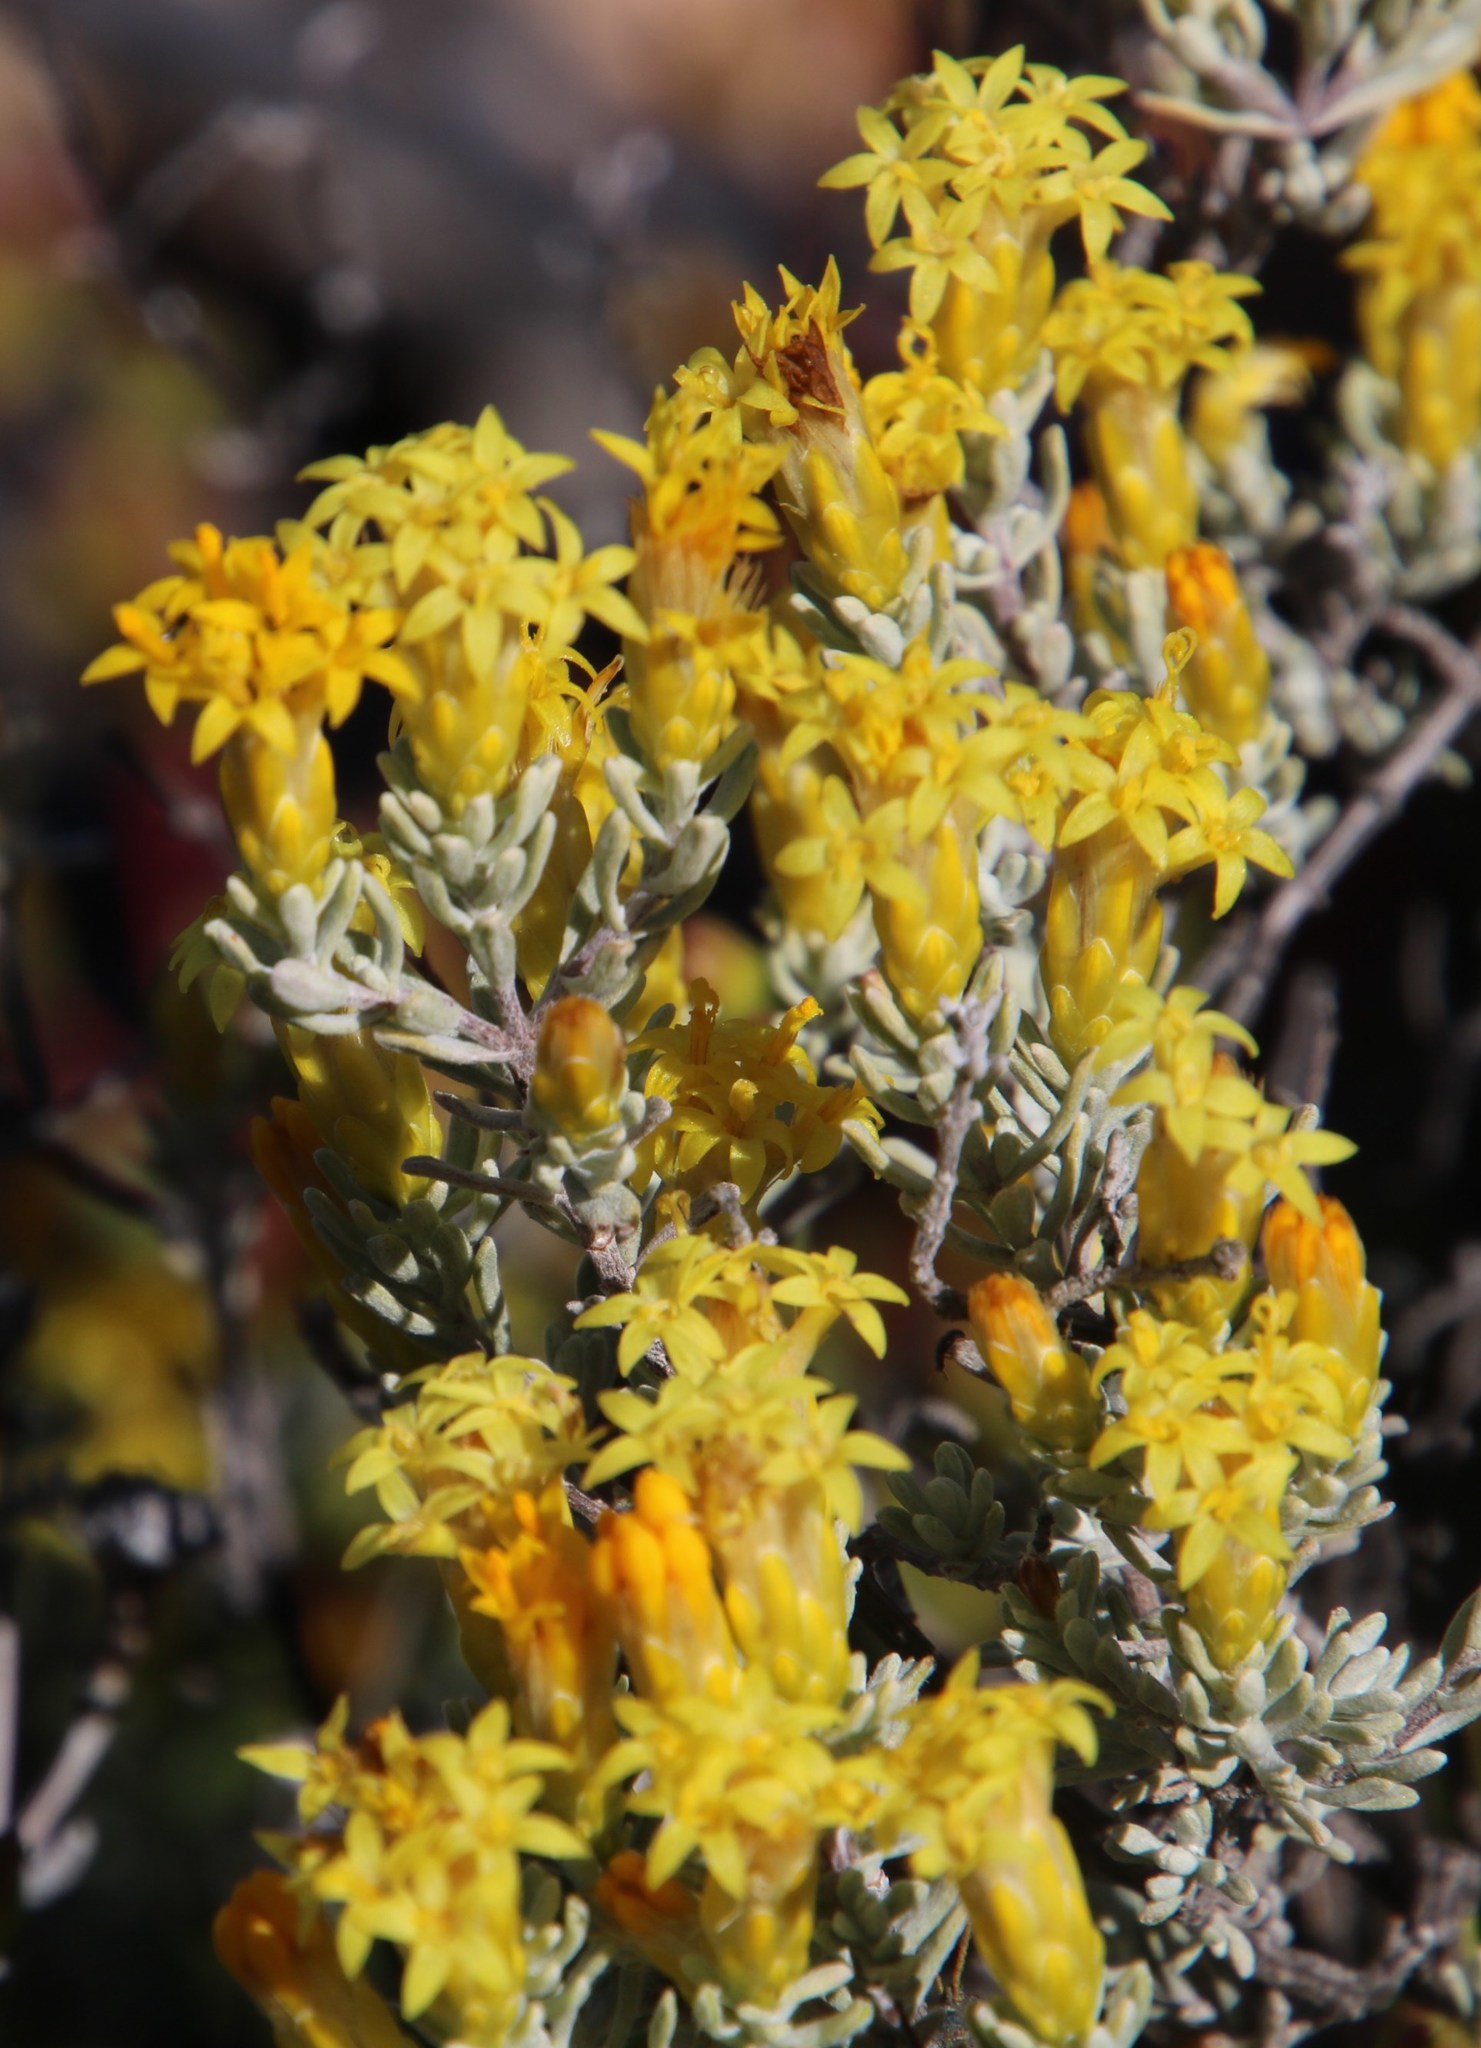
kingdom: Plantae
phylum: Tracheophyta
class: Magnoliopsida
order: Asterales
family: Asteraceae
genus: Pteronia
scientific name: Pteronia incana
